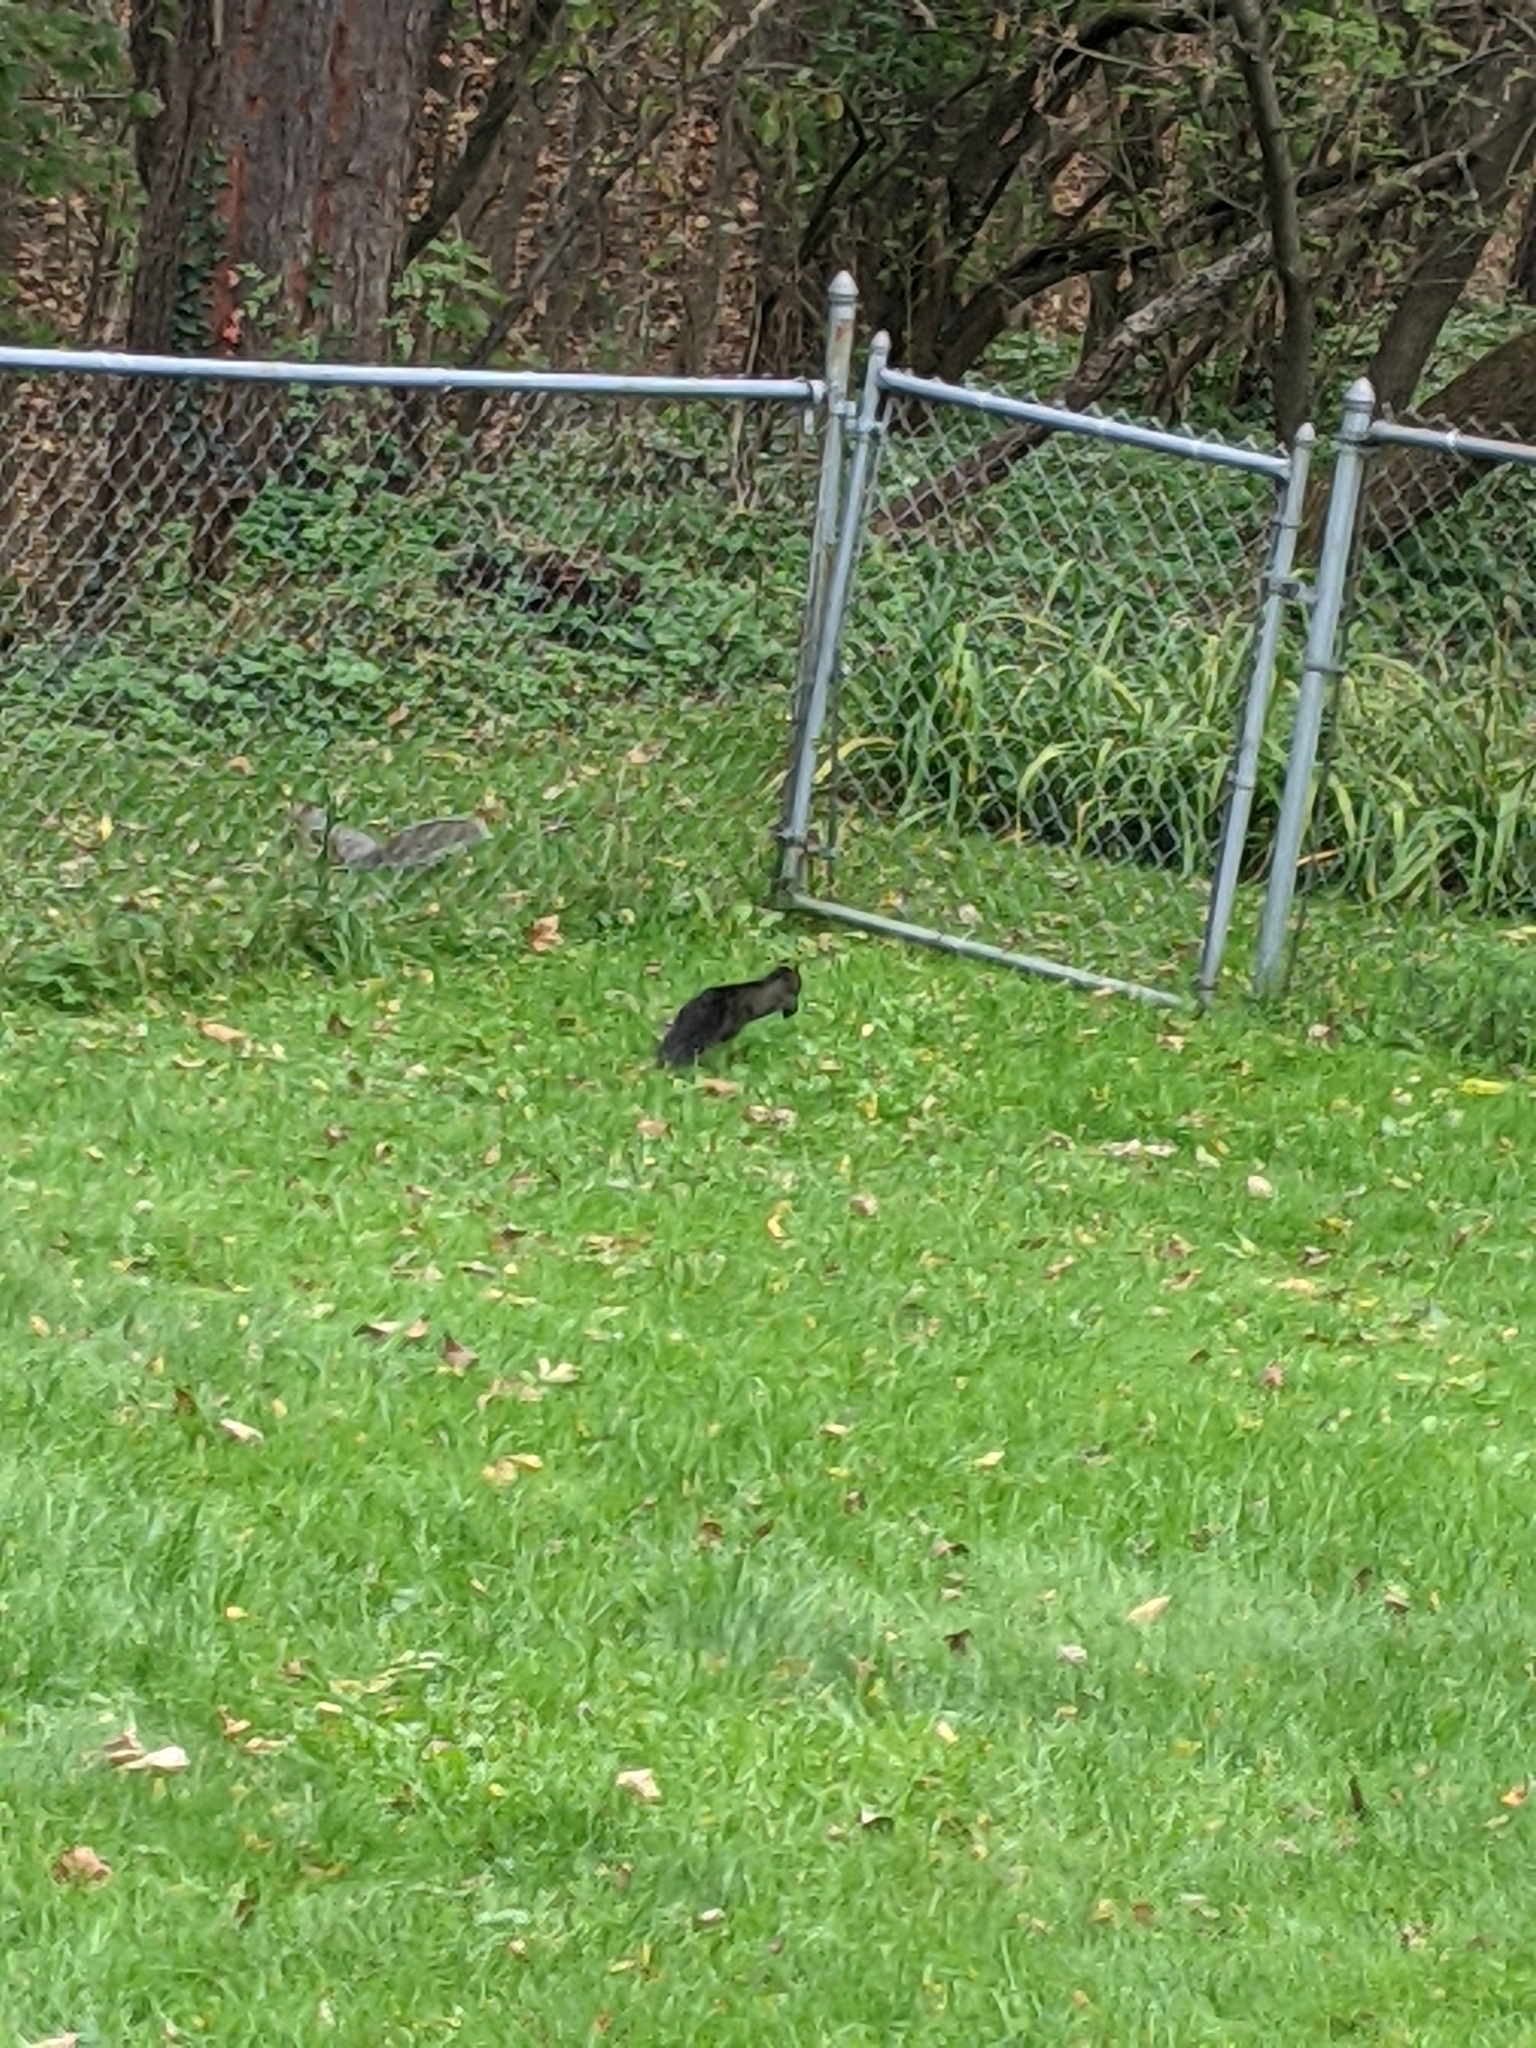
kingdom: Animalia
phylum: Chordata
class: Mammalia
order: Rodentia
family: Sciuridae
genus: Sciurus
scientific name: Sciurus carolinensis
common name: Eastern gray squirrel
